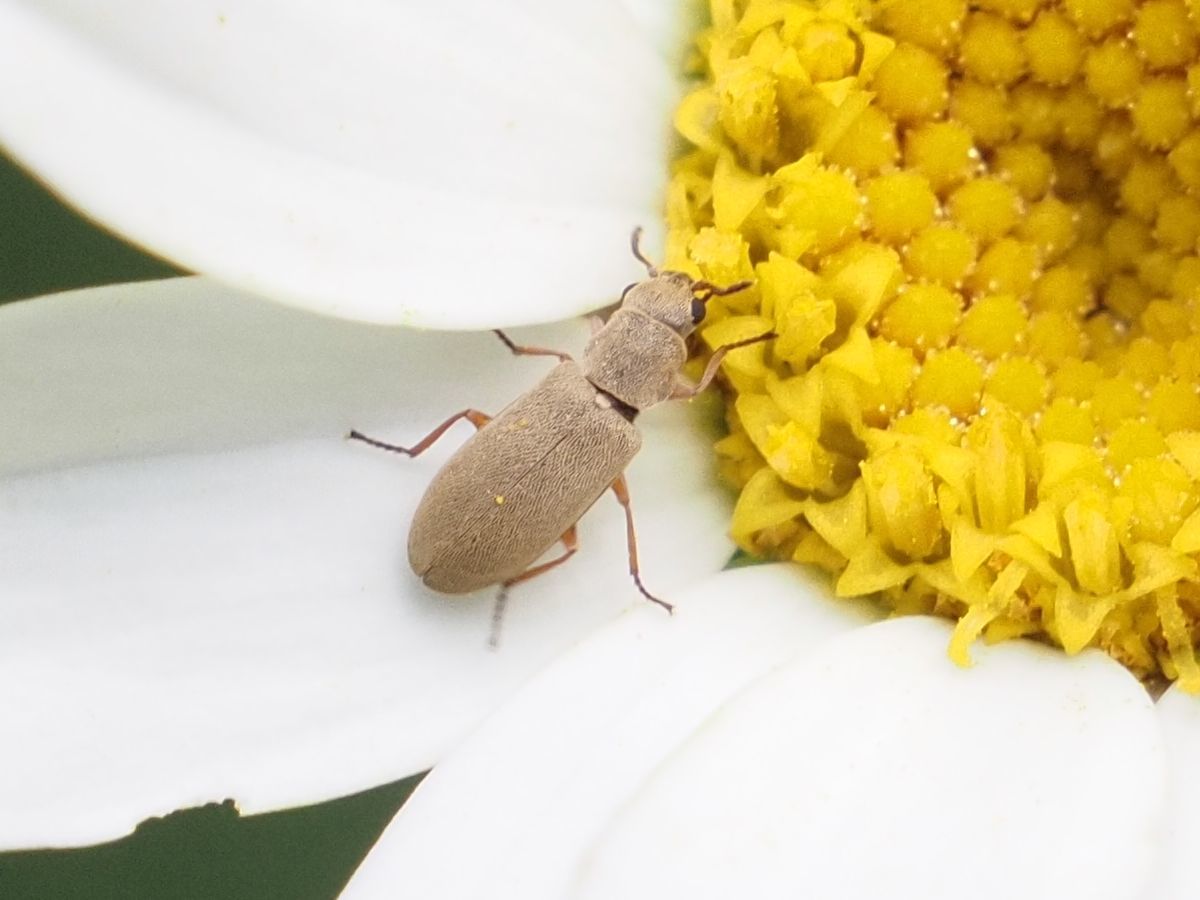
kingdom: Animalia
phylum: Arthropoda
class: Insecta
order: Coleoptera
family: Dasytidae
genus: Danacea
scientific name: Danacea nigritarsis
